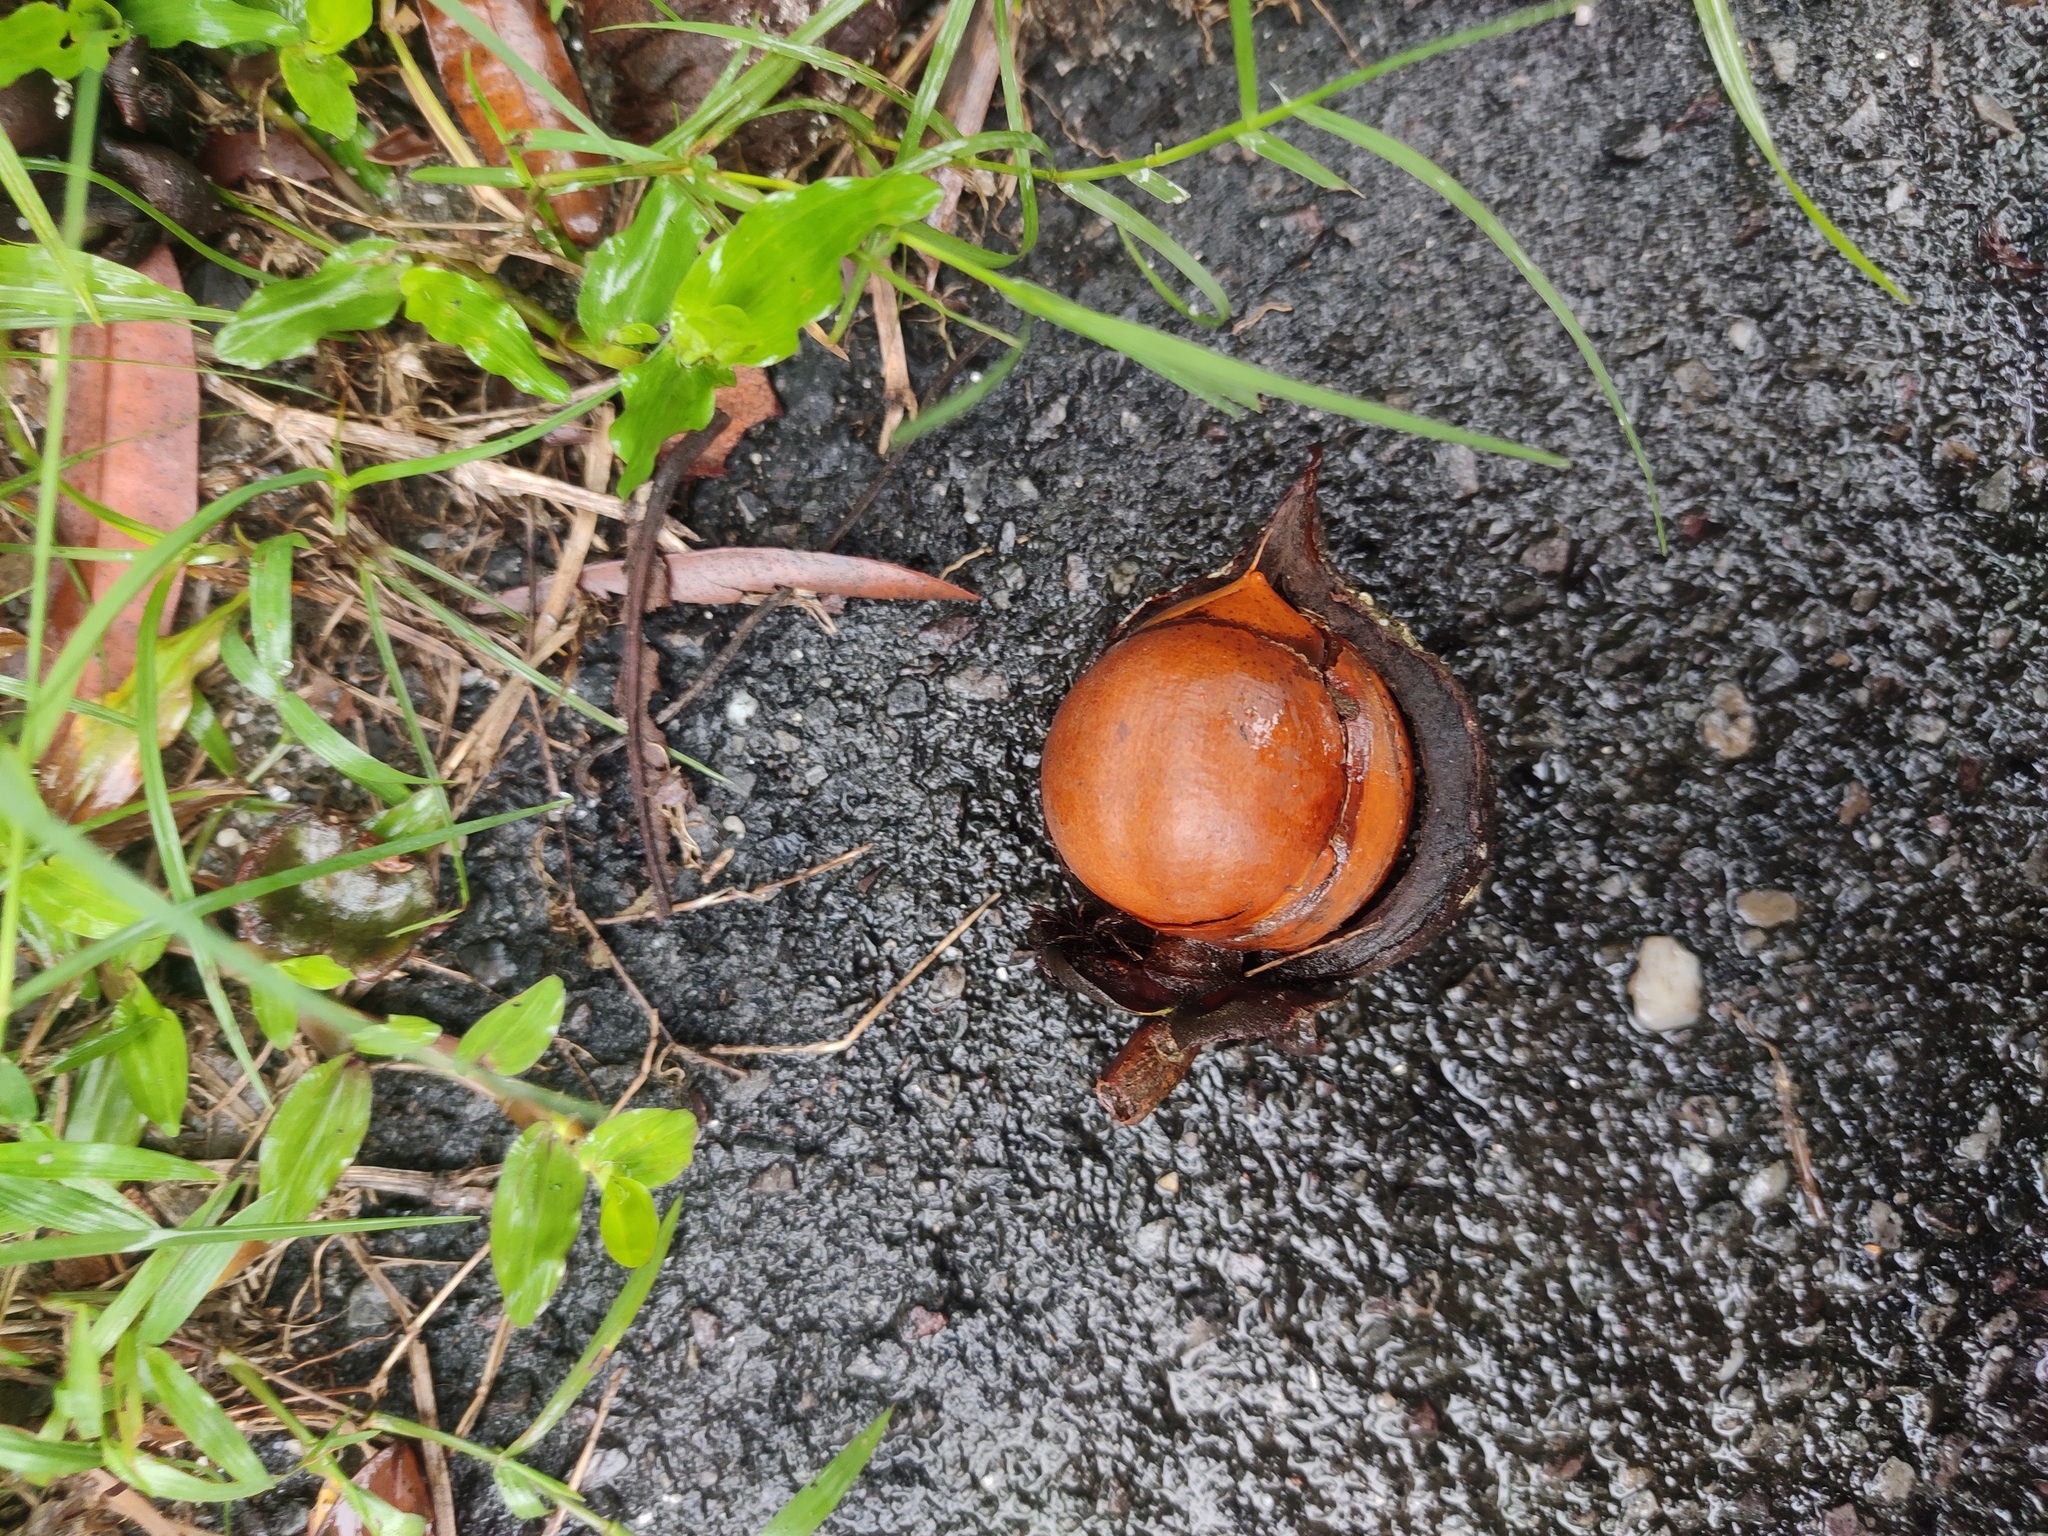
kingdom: Plantae
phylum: Tracheophyta
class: Magnoliopsida
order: Malpighiales
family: Calophyllaceae
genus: Mesua
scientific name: Mesua ferrea
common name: Mesua
